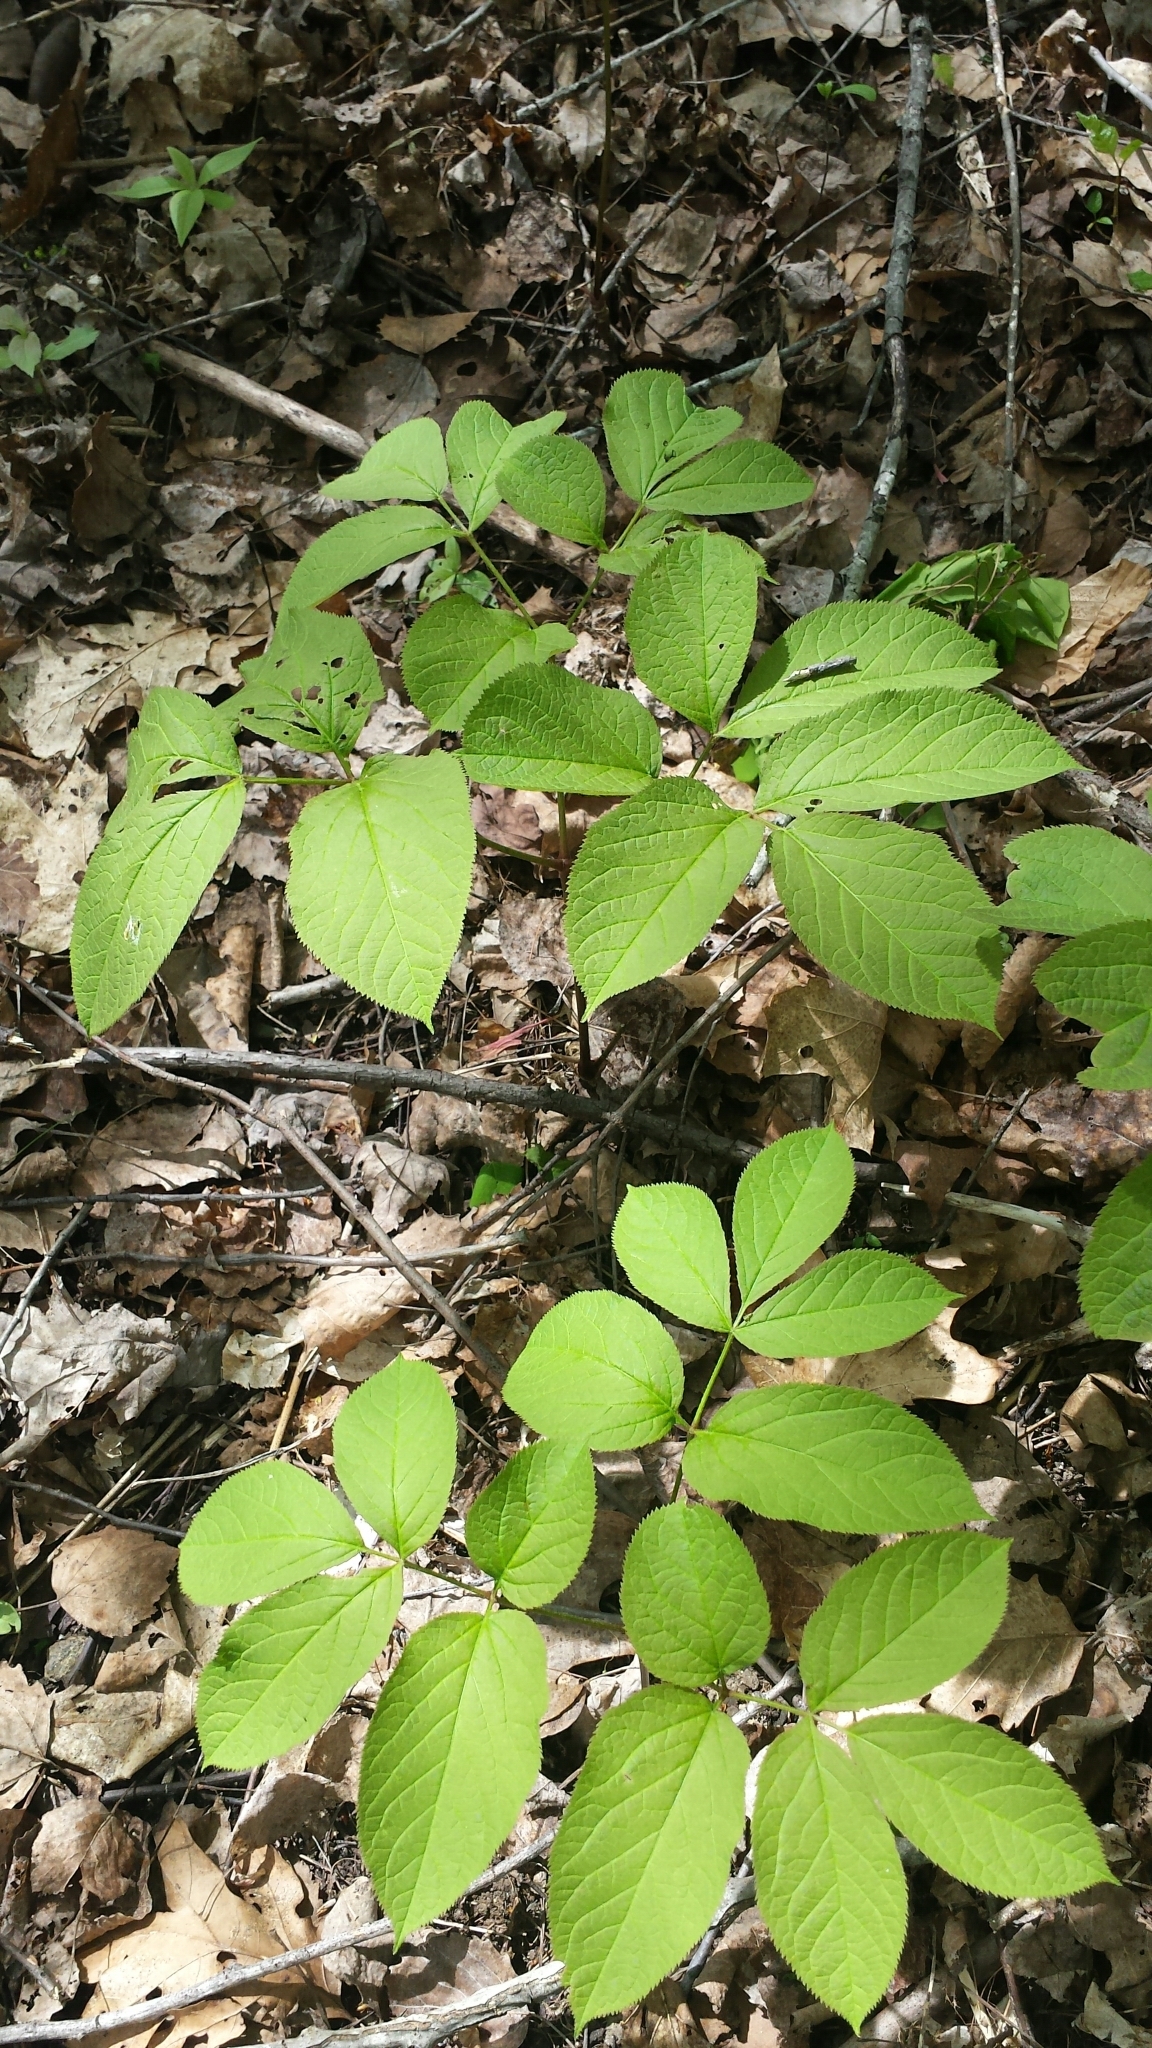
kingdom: Plantae
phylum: Tracheophyta
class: Magnoliopsida
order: Apiales
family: Araliaceae
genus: Aralia
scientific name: Aralia nudicaulis
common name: Wild sarsaparilla
